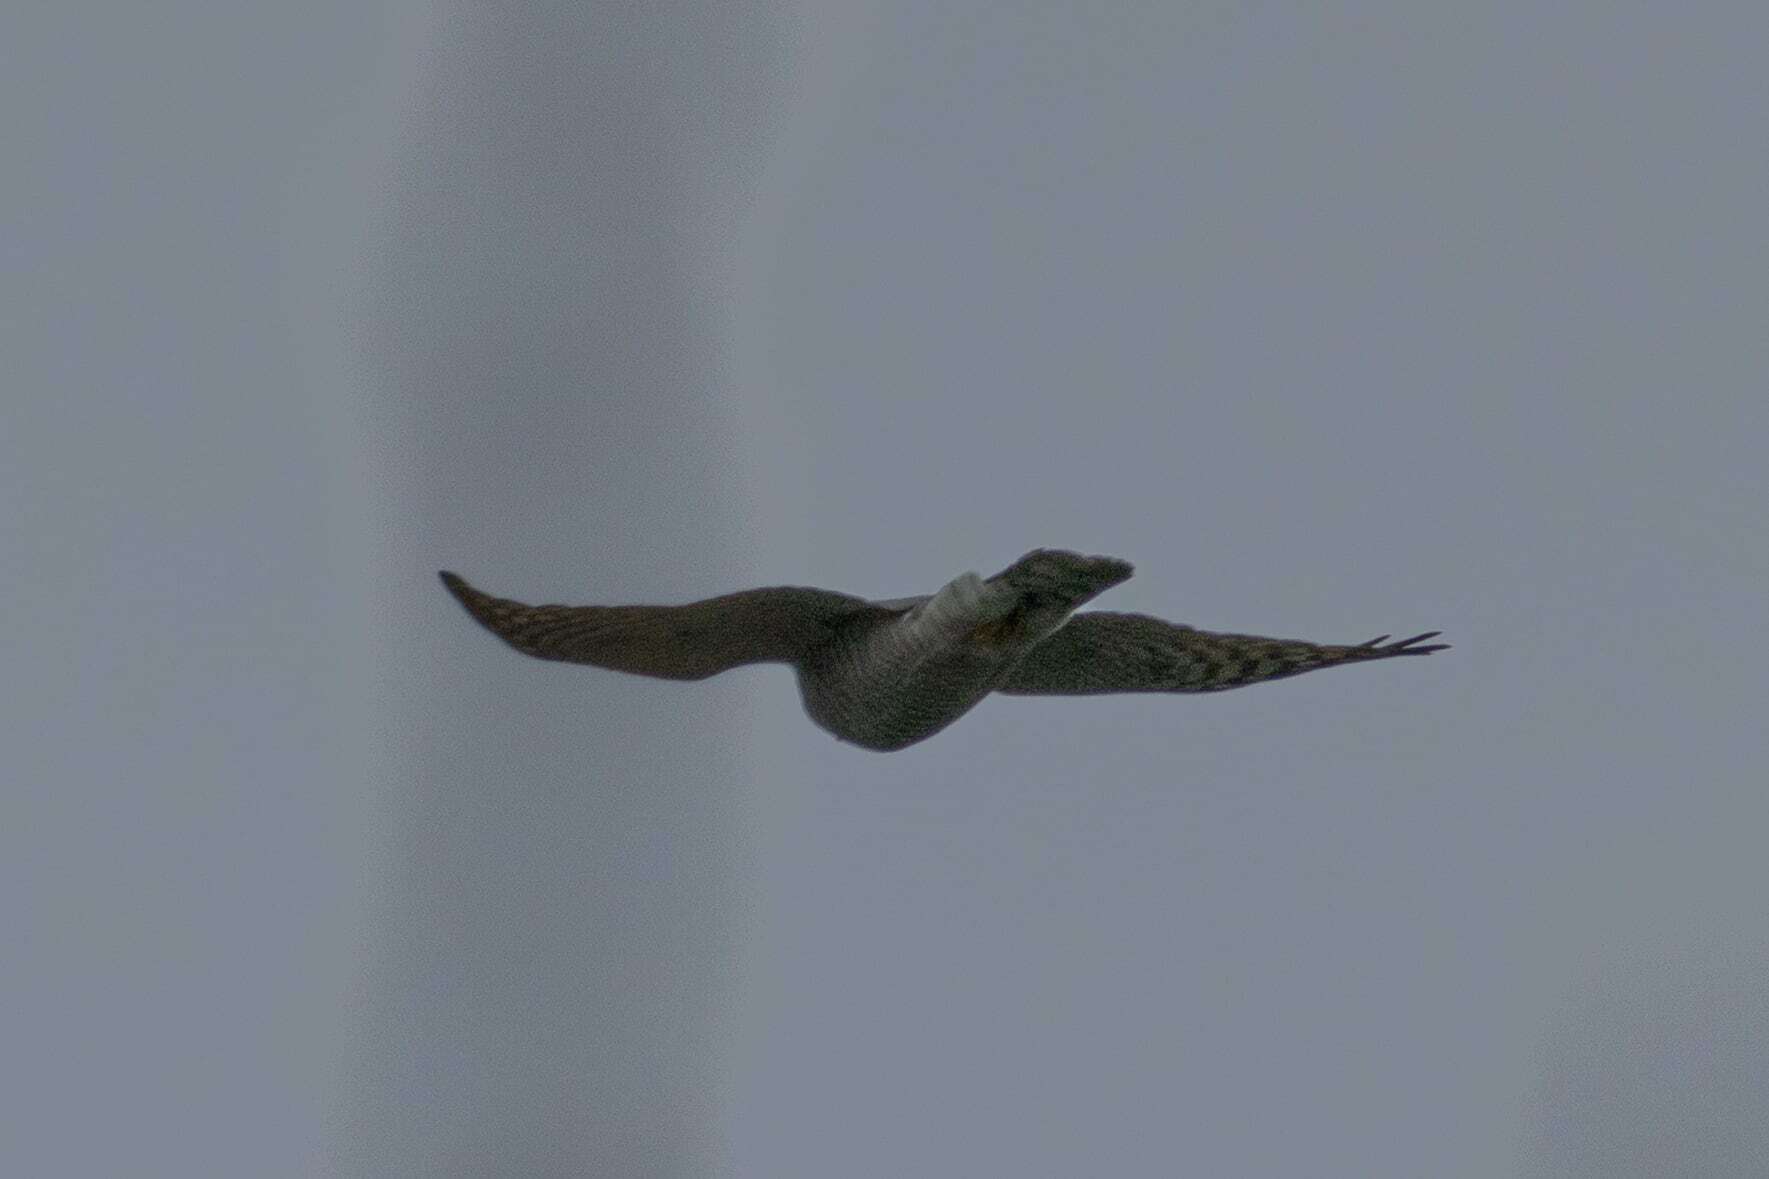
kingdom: Animalia
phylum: Chordata
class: Aves
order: Accipitriformes
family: Accipitridae
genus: Accipiter
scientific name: Accipiter nisus
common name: Eurasian sparrowhawk
